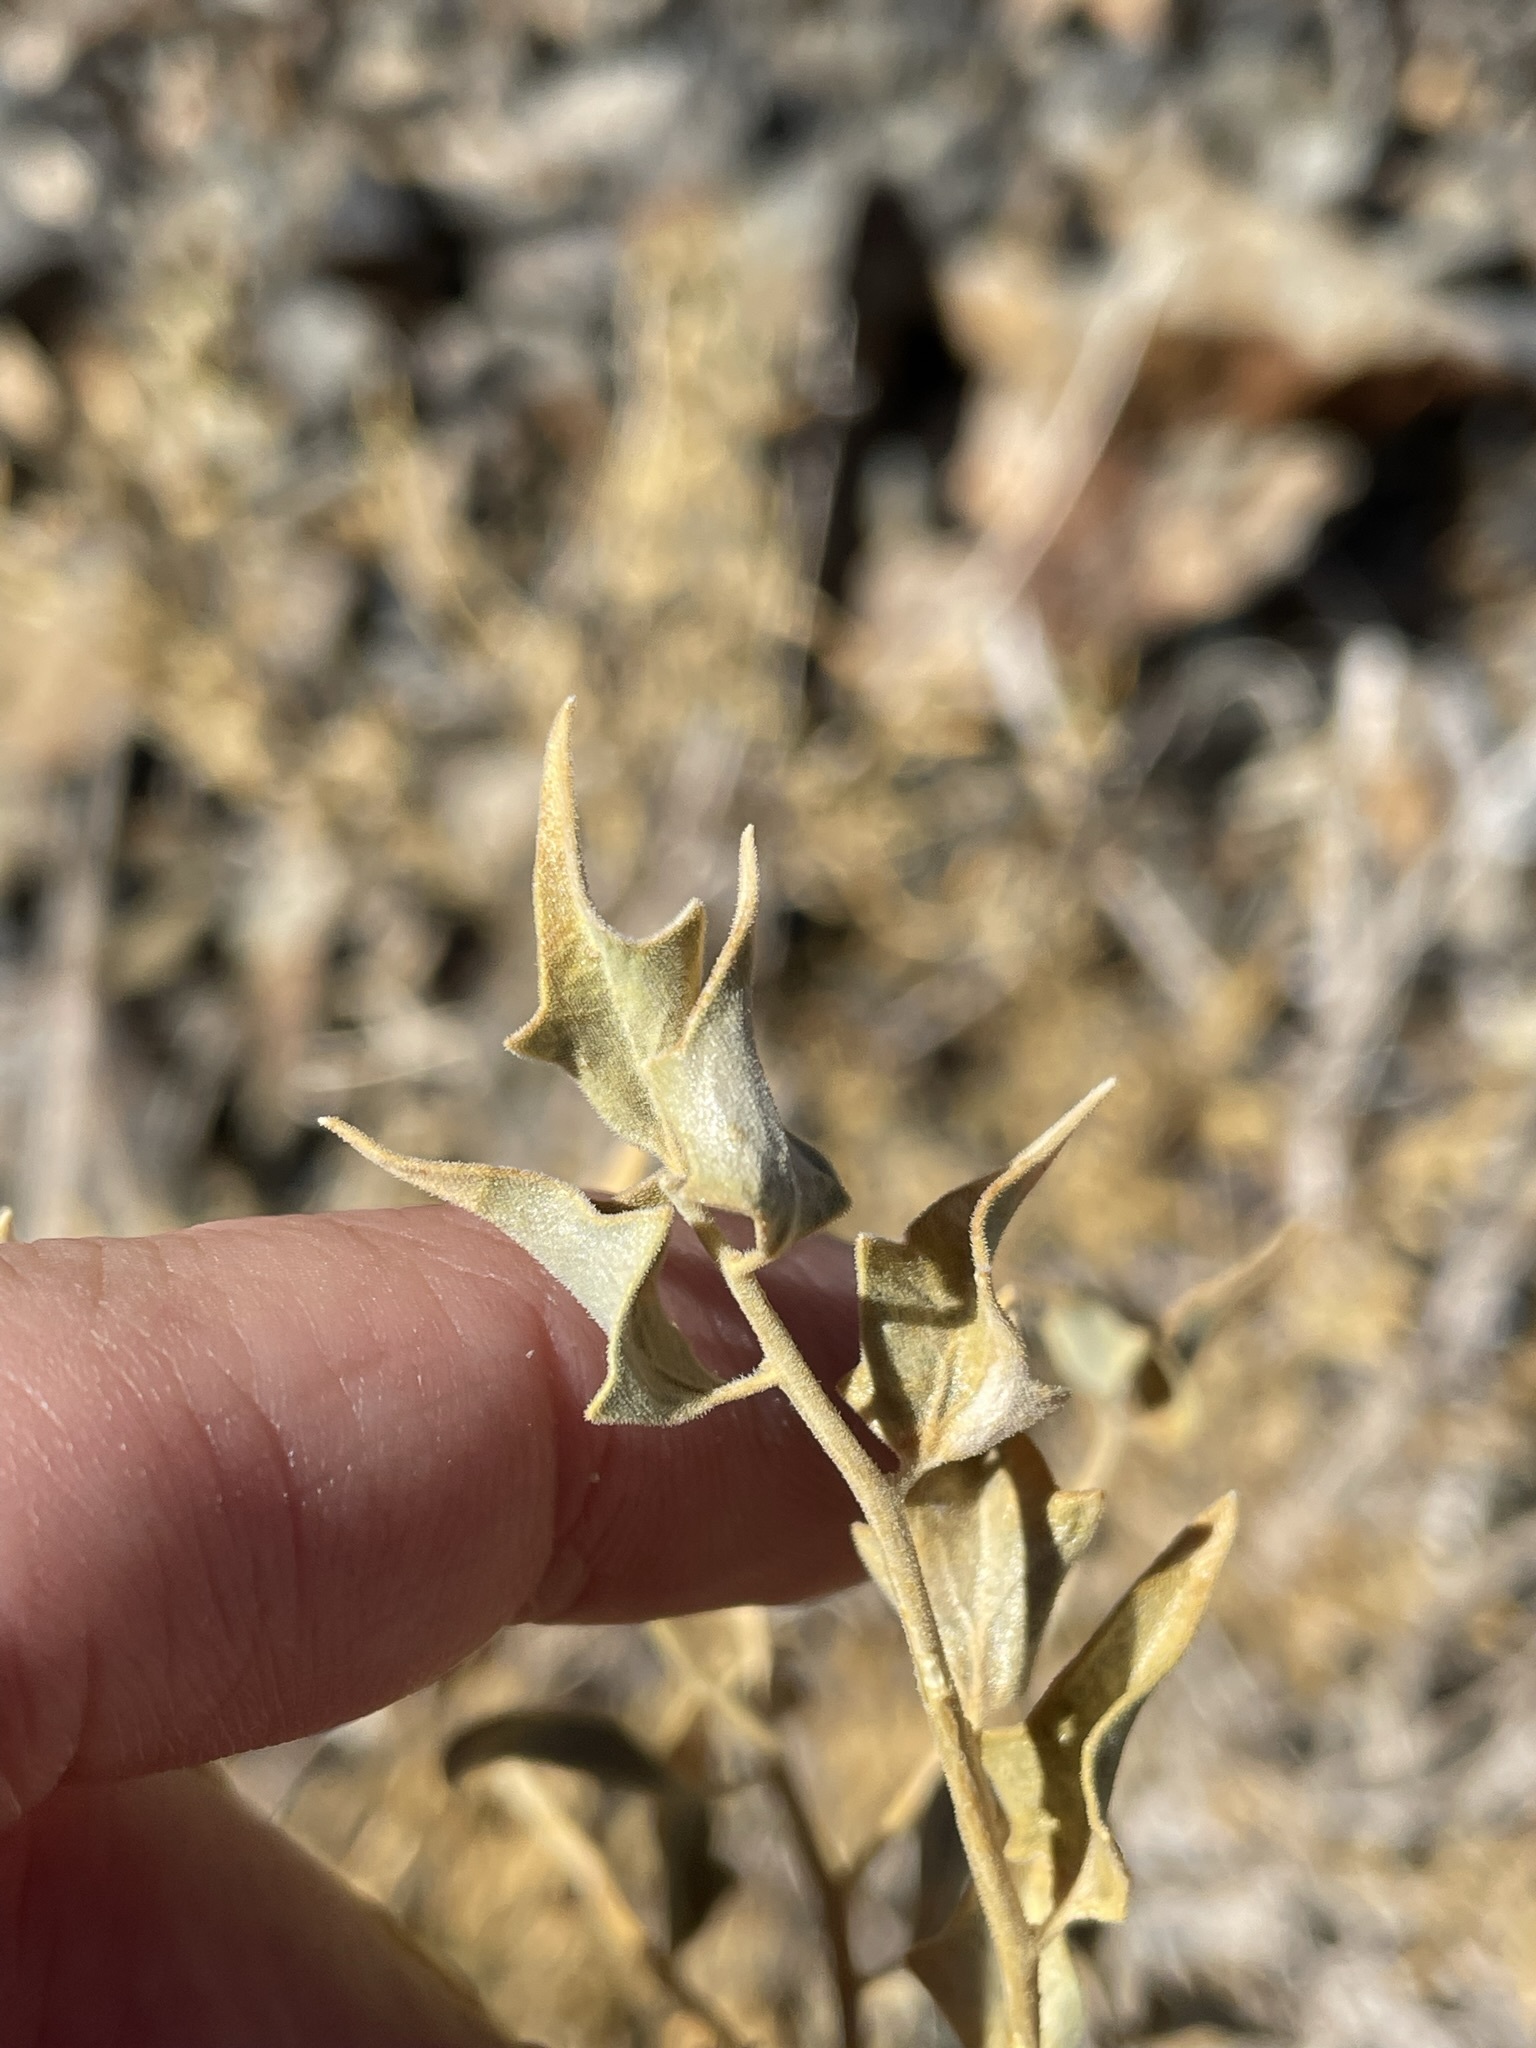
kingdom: Plantae
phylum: Tracheophyta
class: Magnoliopsida
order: Cornales
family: Loasaceae
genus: Petalonyx
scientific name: Petalonyx nitidus
